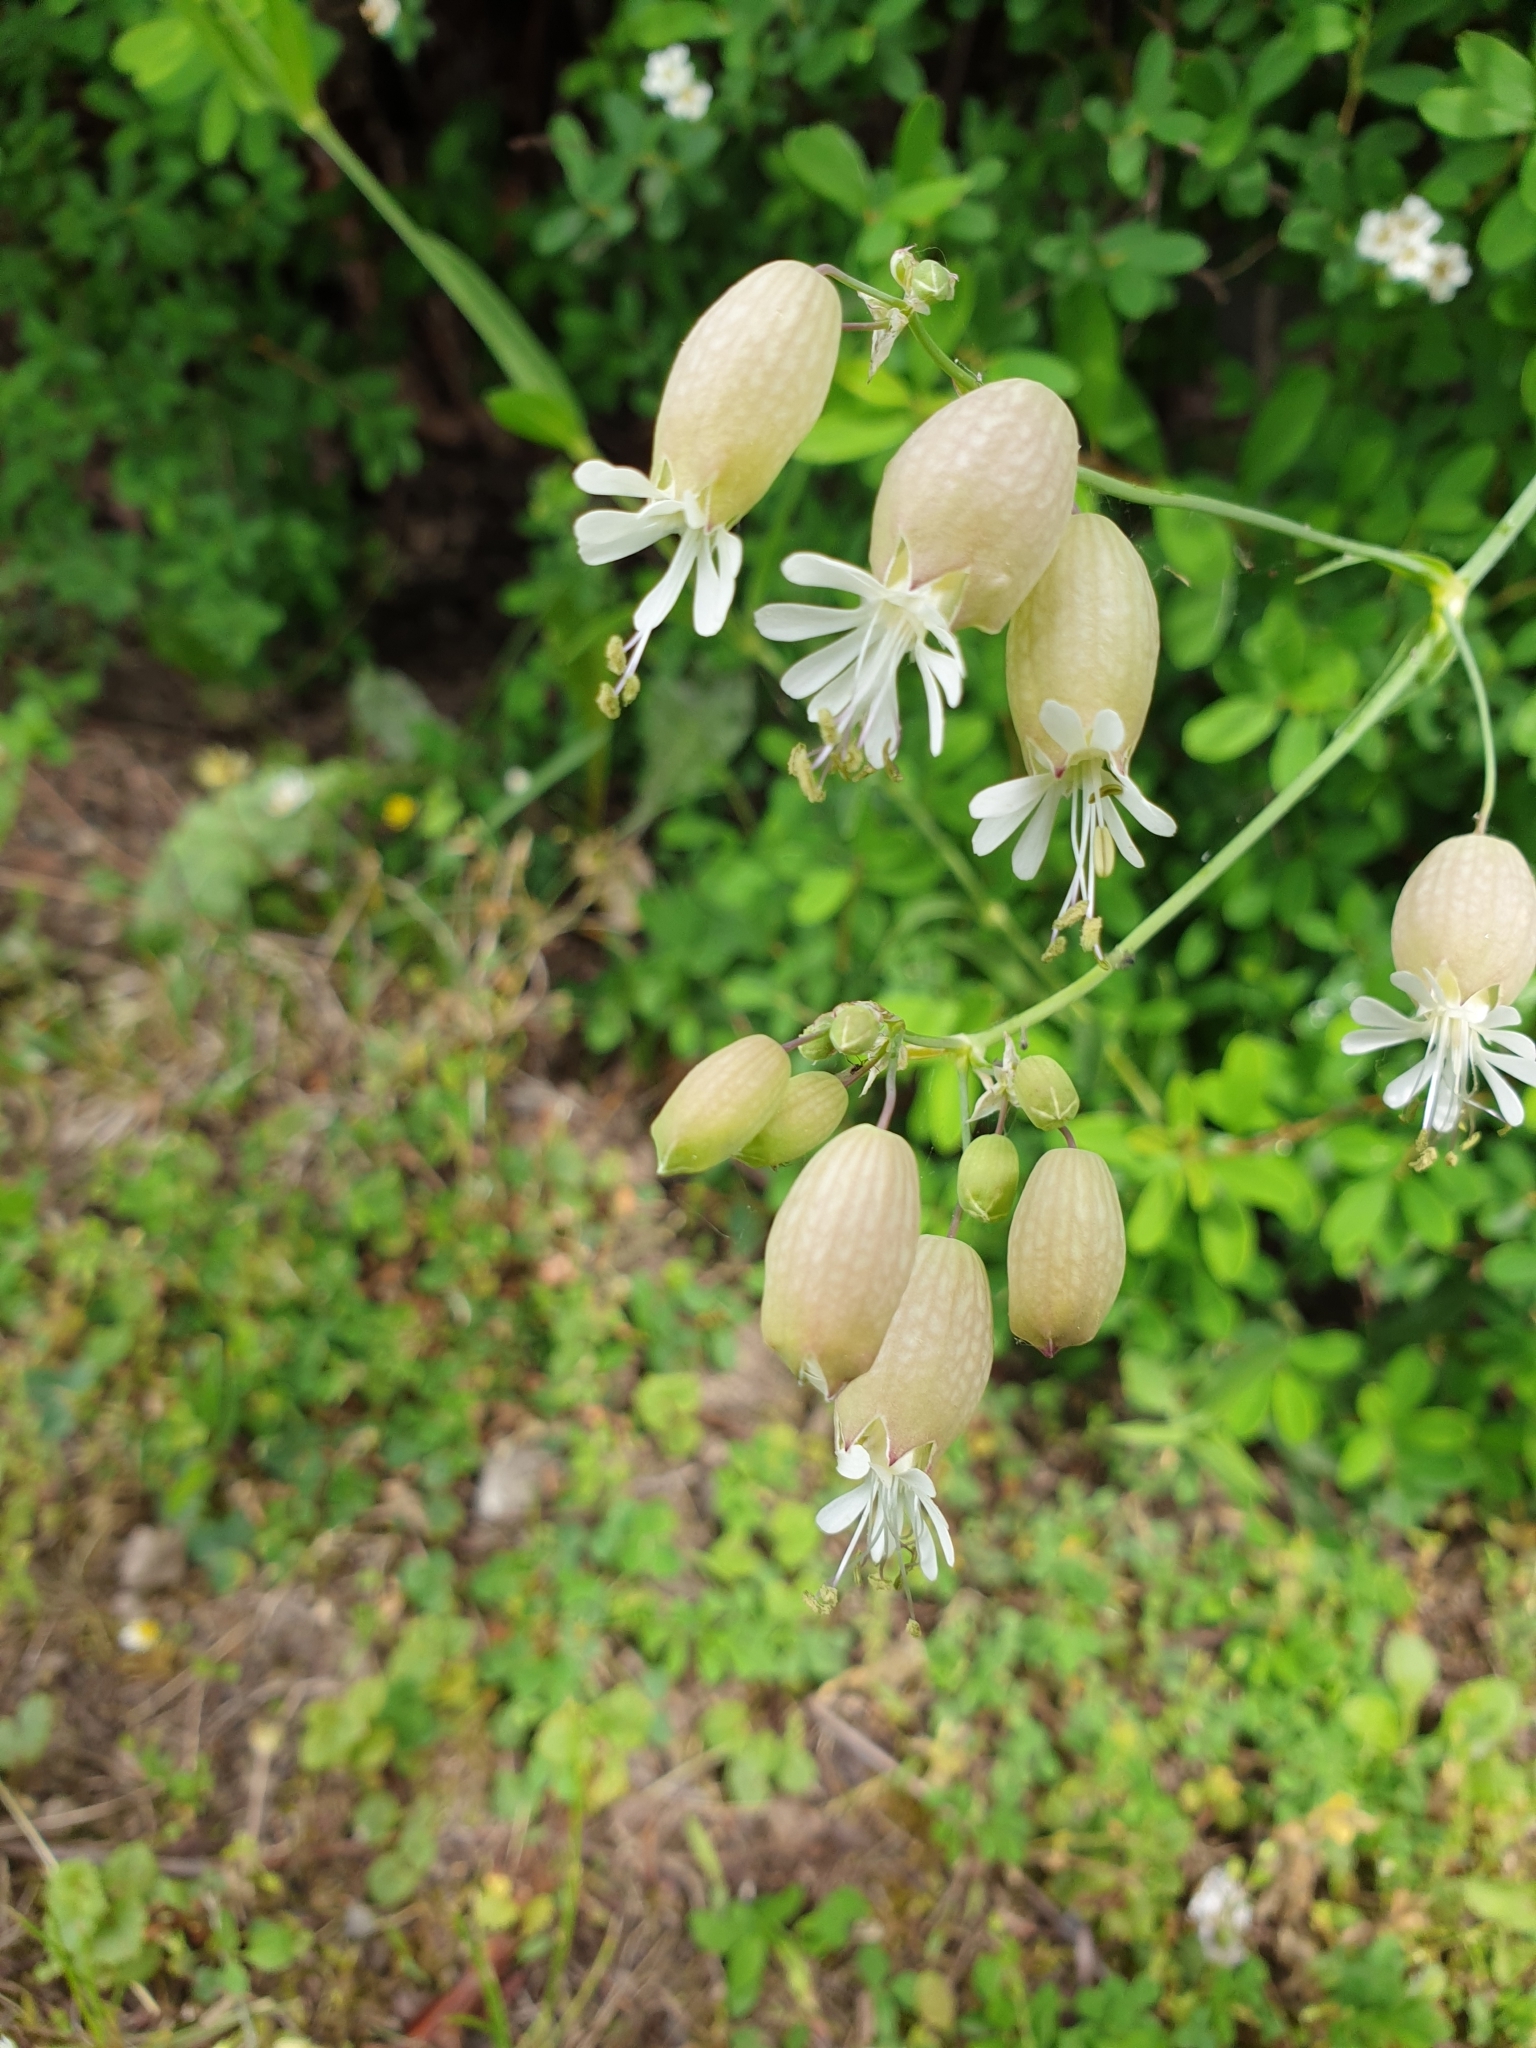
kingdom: Plantae
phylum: Tracheophyta
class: Magnoliopsida
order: Caryophyllales
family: Caryophyllaceae
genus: Silene
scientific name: Silene vulgaris
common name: Bladder campion
